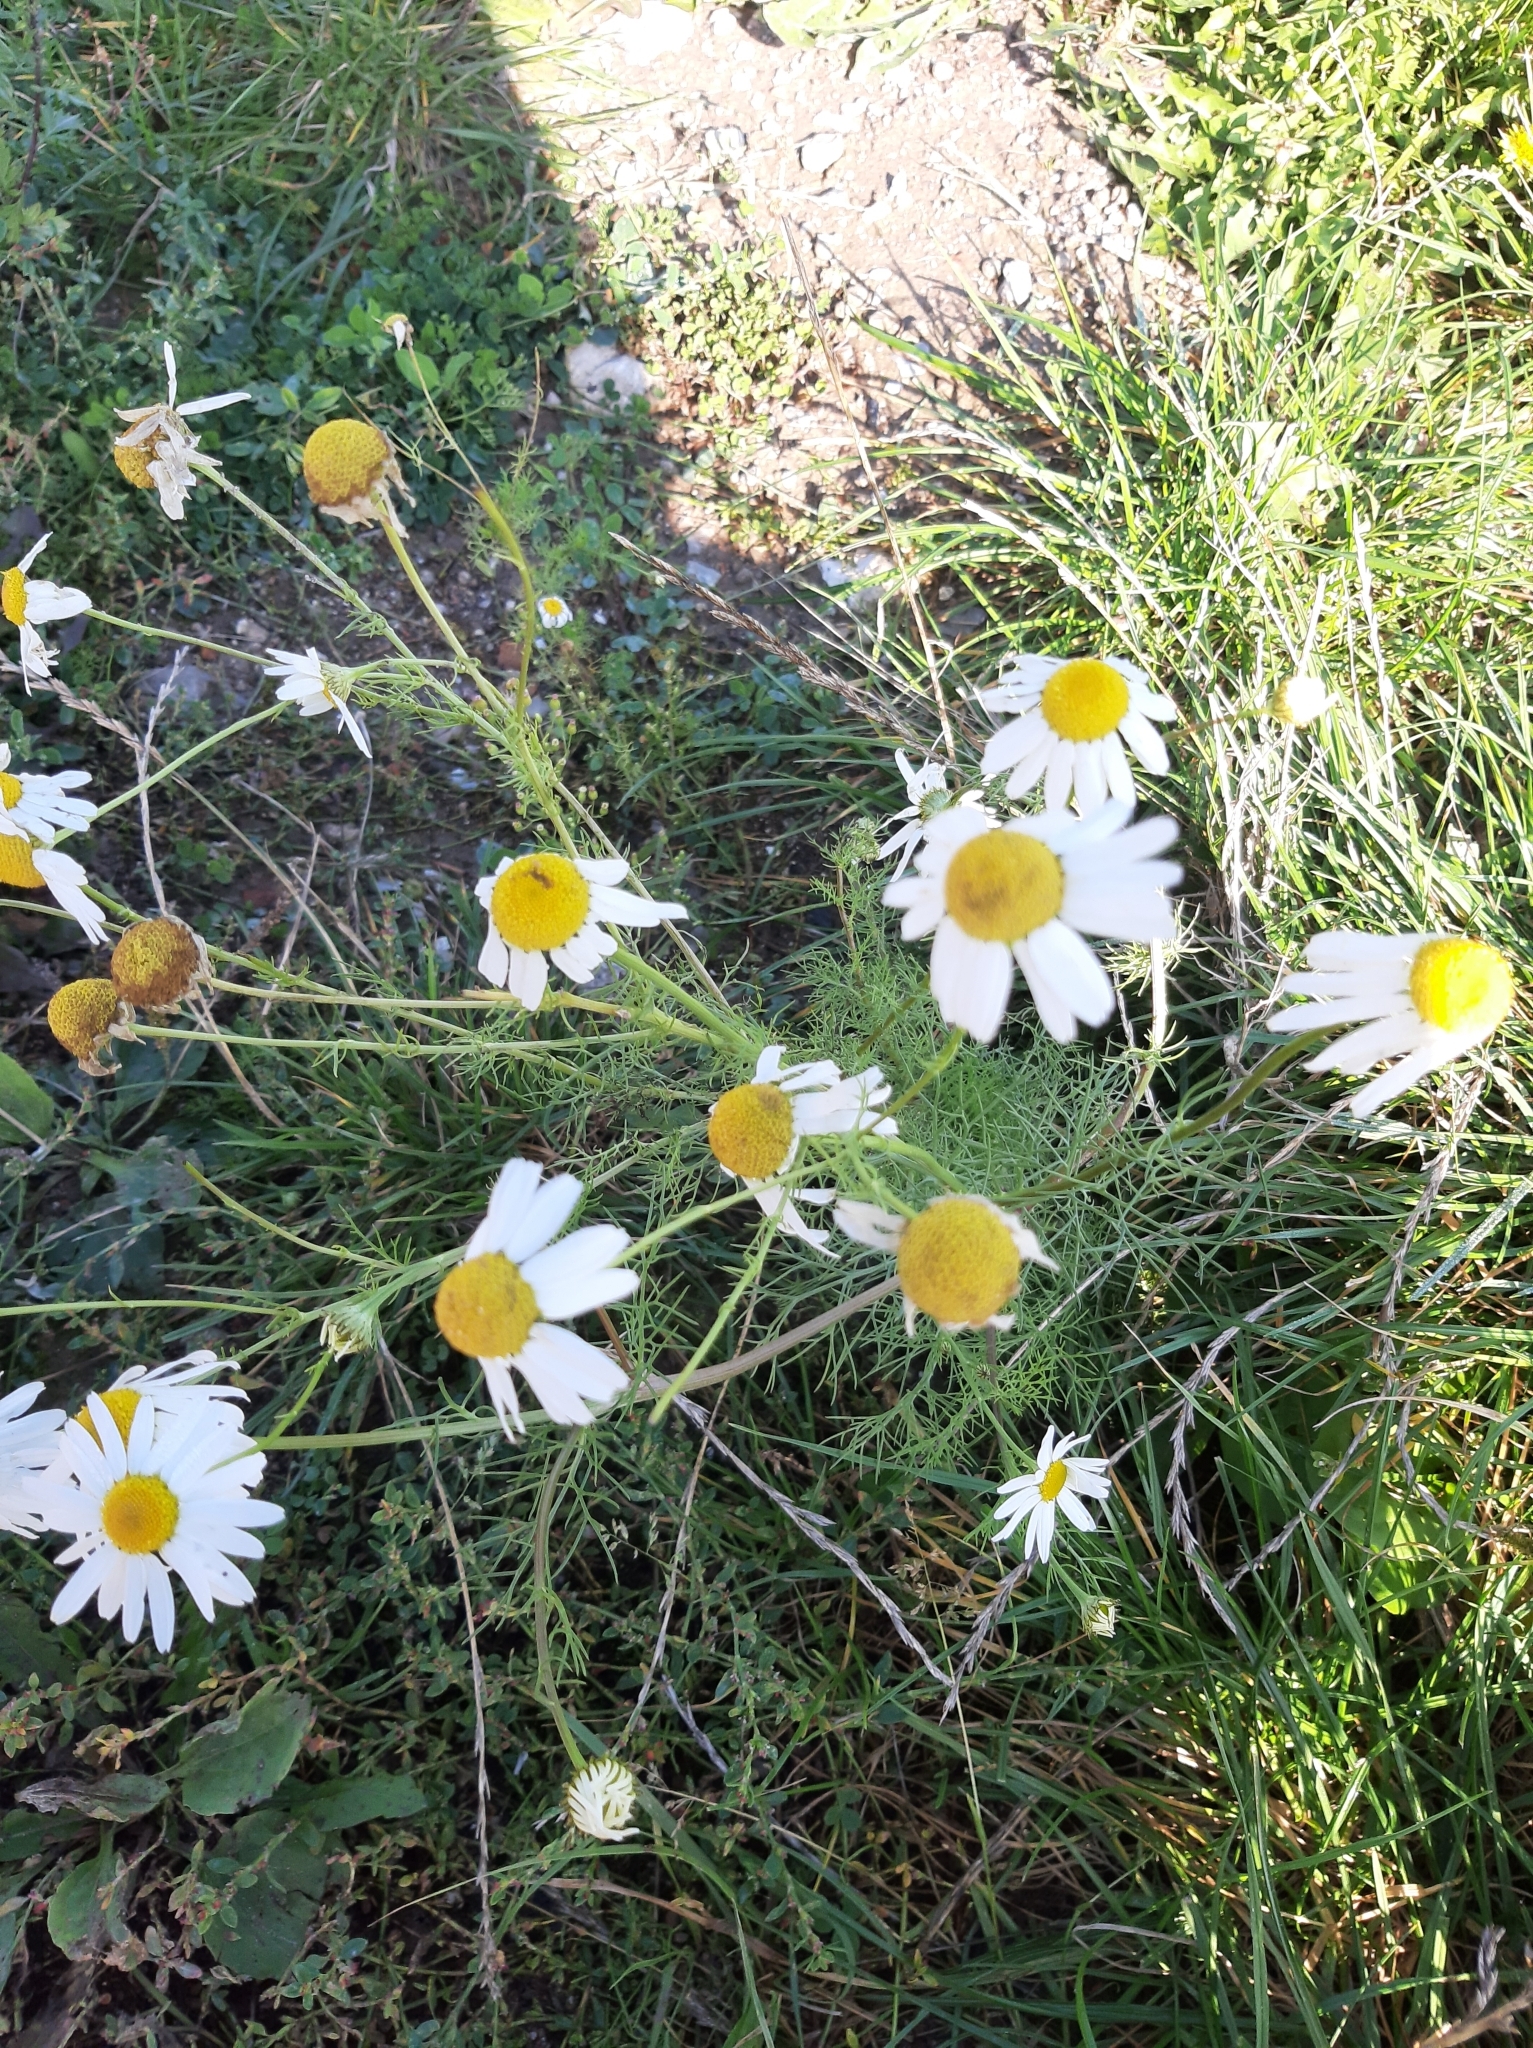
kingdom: Plantae
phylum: Tracheophyta
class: Magnoliopsida
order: Asterales
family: Asteraceae
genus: Tripleurospermum
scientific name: Tripleurospermum inodorum
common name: Scentless mayweed
